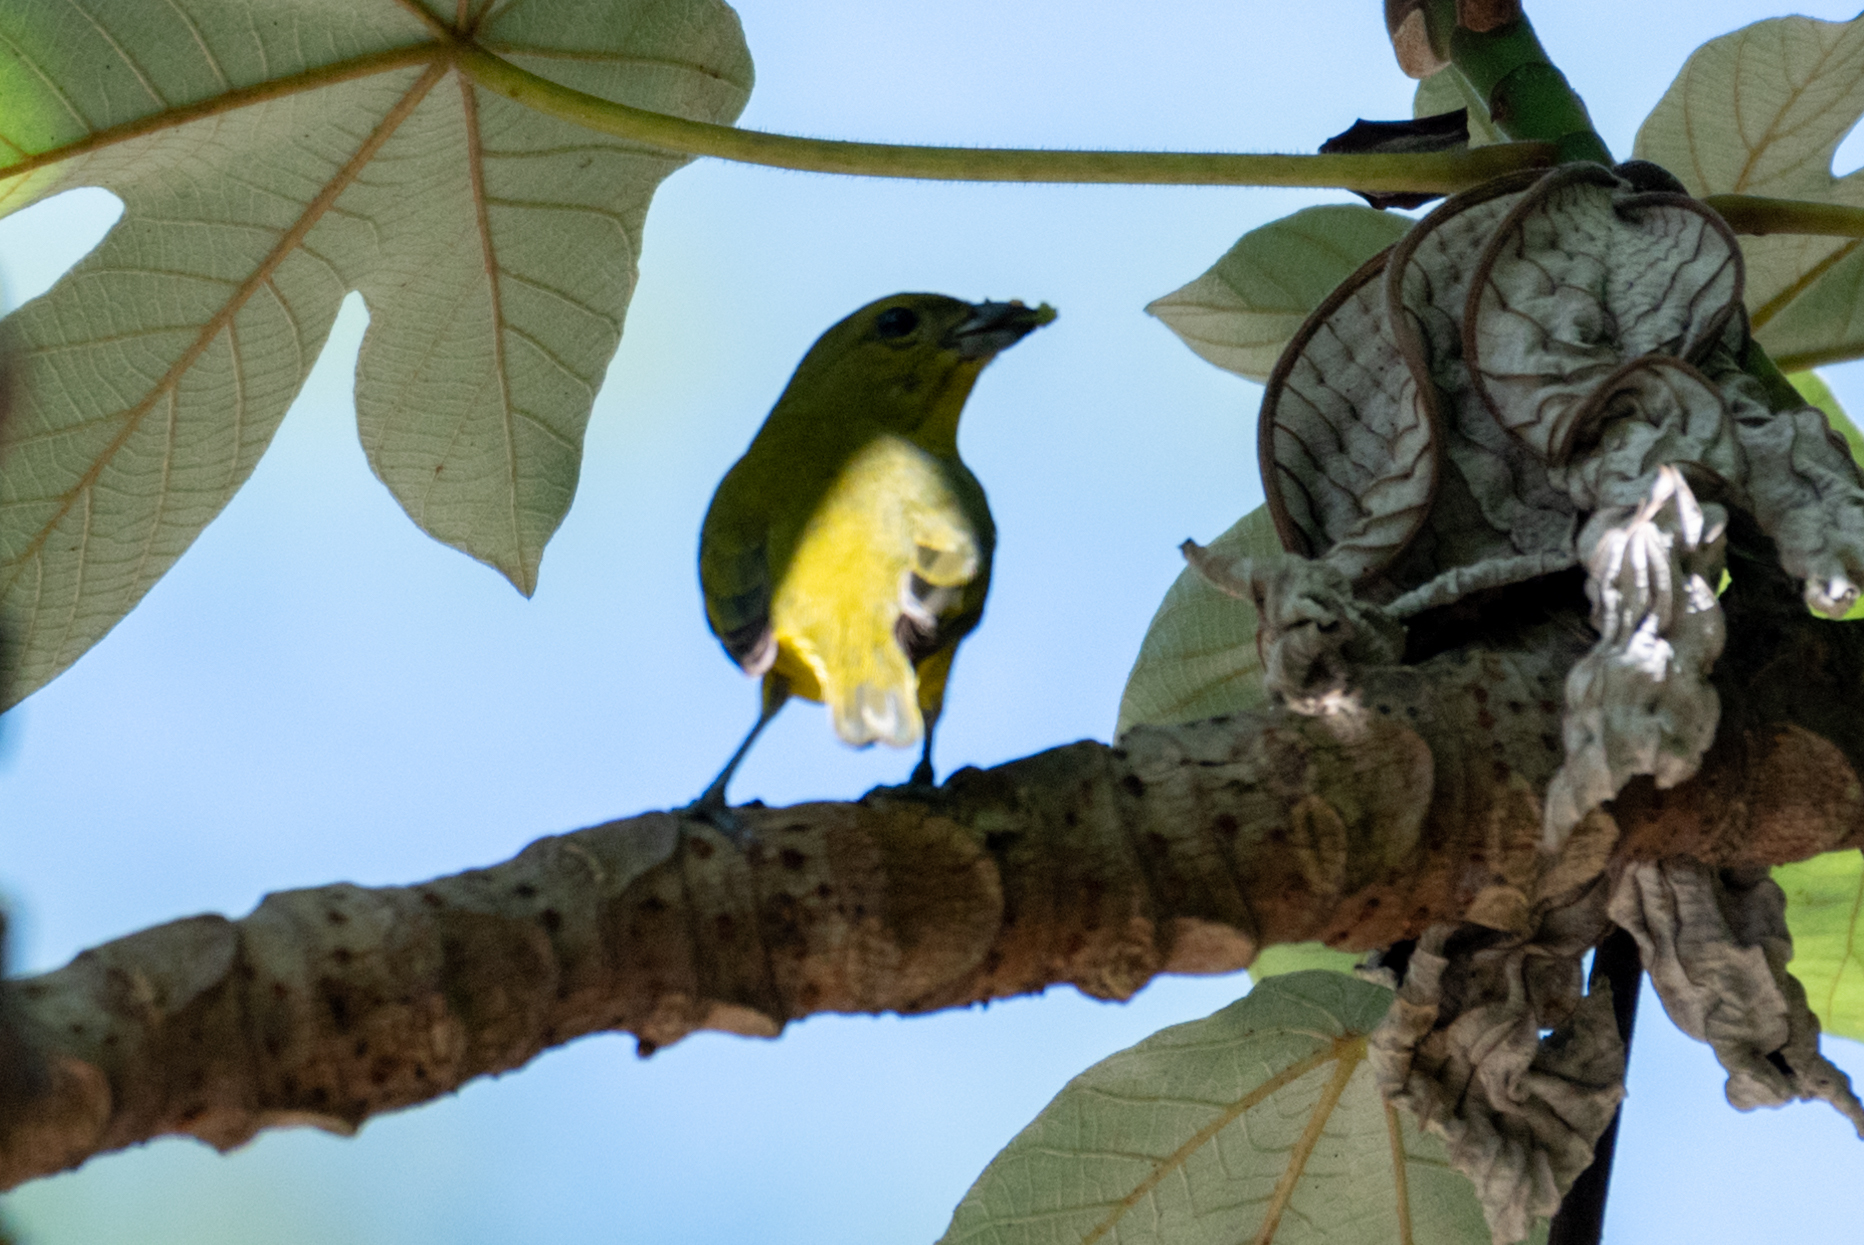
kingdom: Animalia
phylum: Chordata
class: Aves
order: Passeriformes
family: Fringillidae
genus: Euphonia
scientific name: Euphonia laniirostris
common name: Thick-billed euphonia
